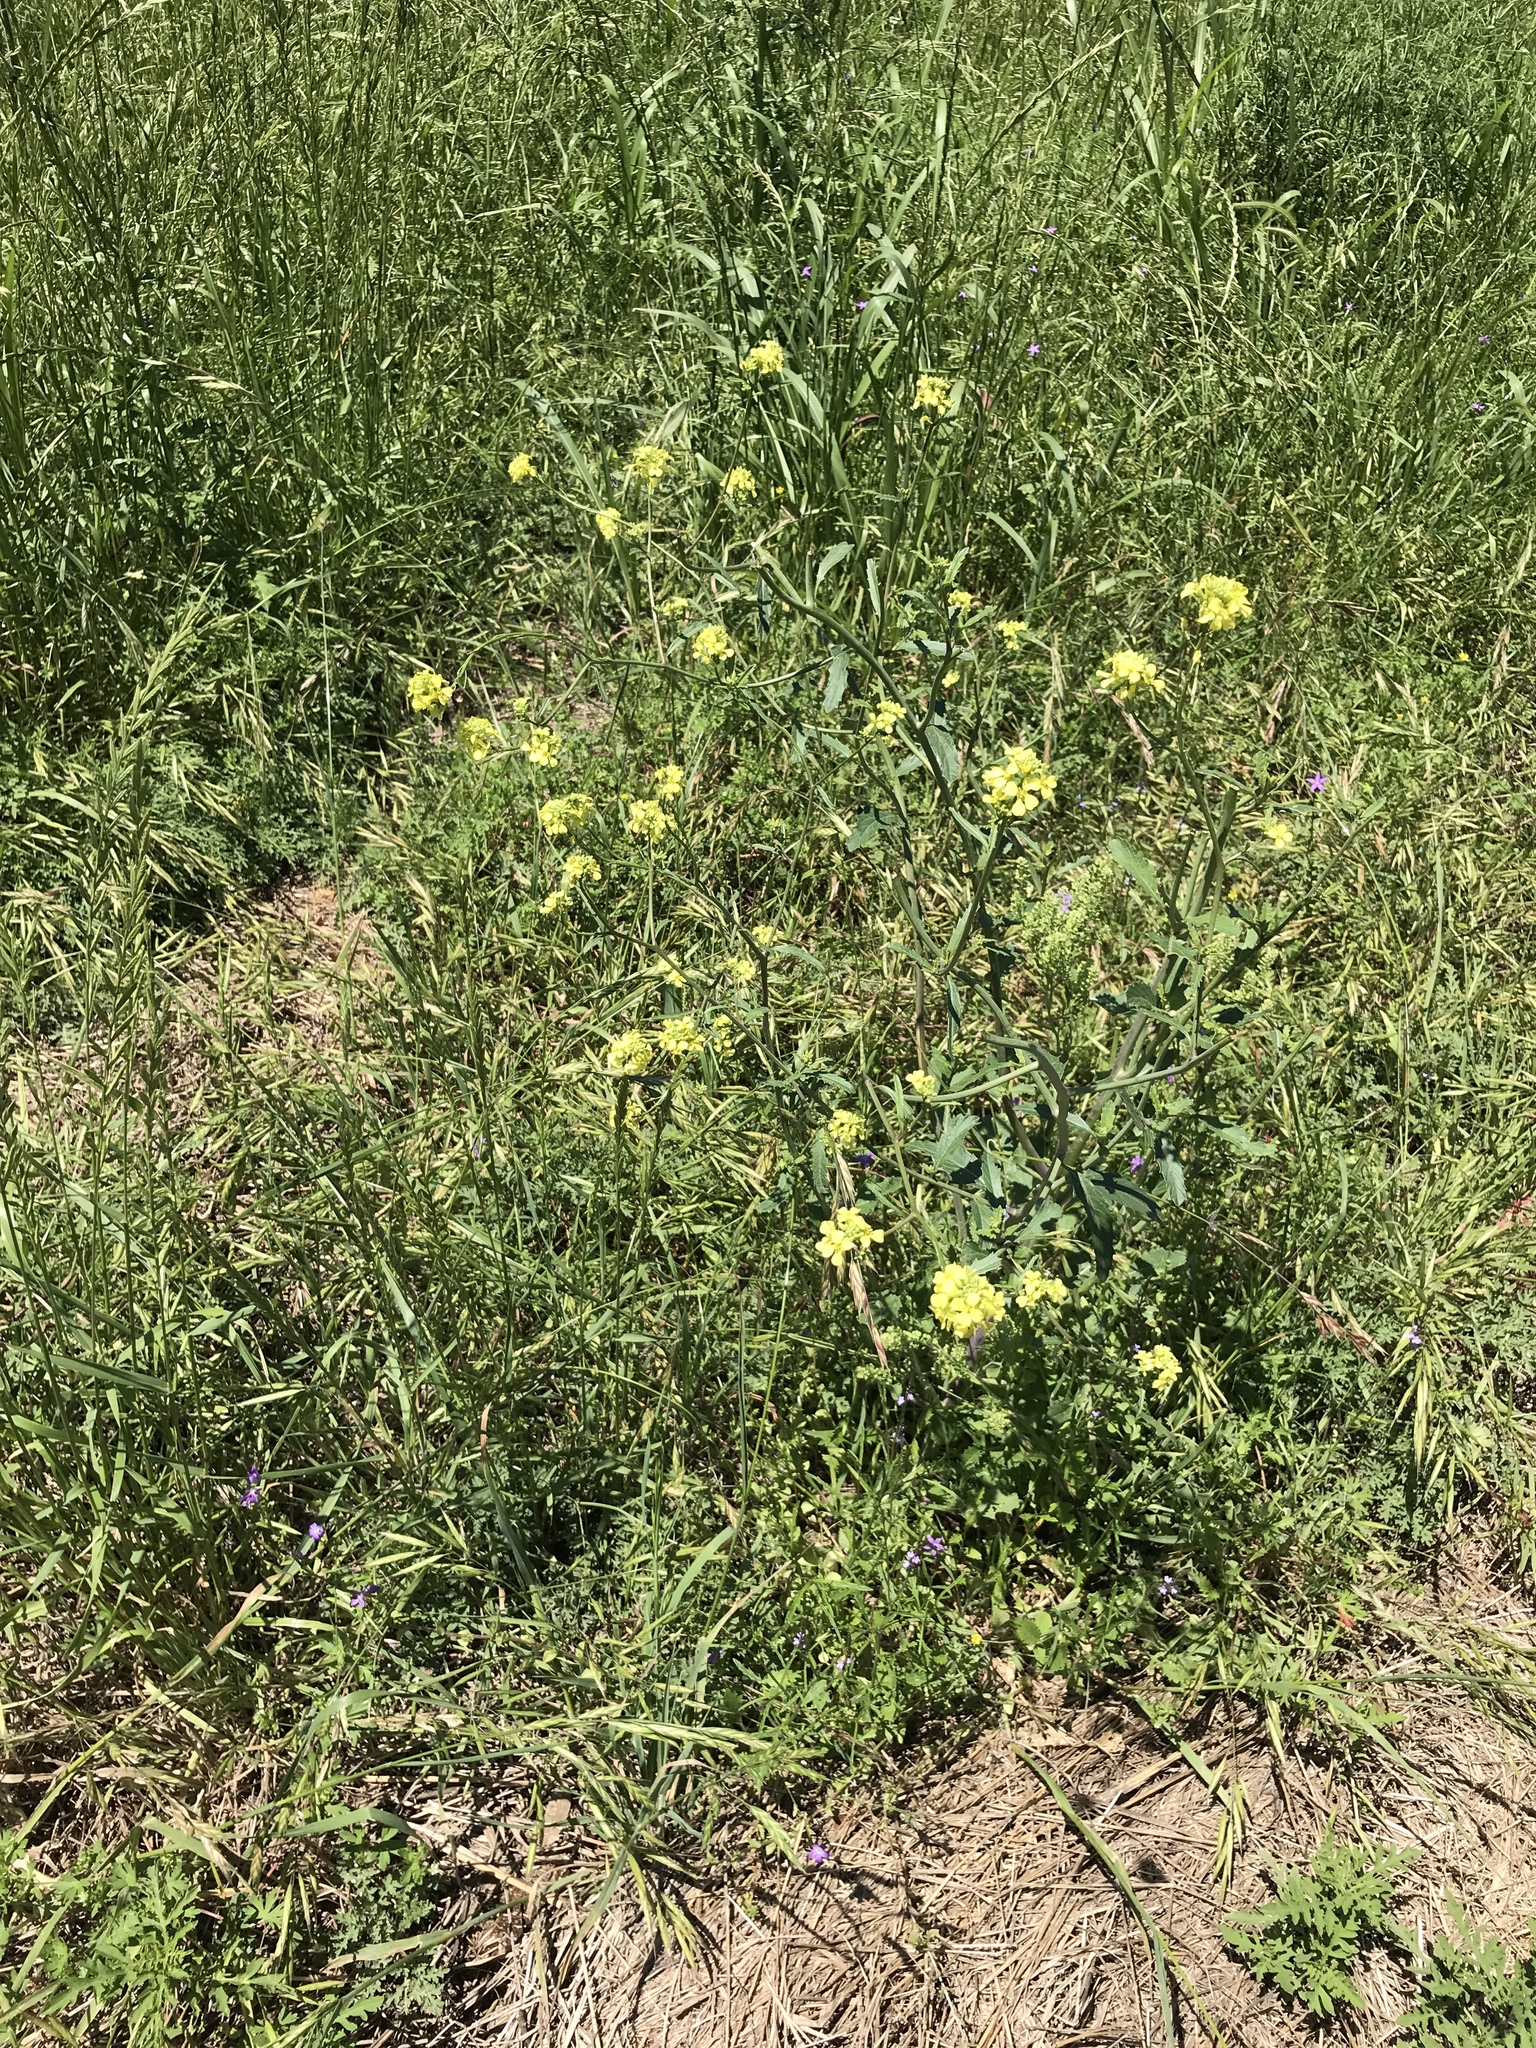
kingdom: Plantae
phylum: Tracheophyta
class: Magnoliopsida
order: Brassicales
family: Brassicaceae
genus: Rapistrum
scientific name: Rapistrum rugosum
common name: Annual bastardcabbage
